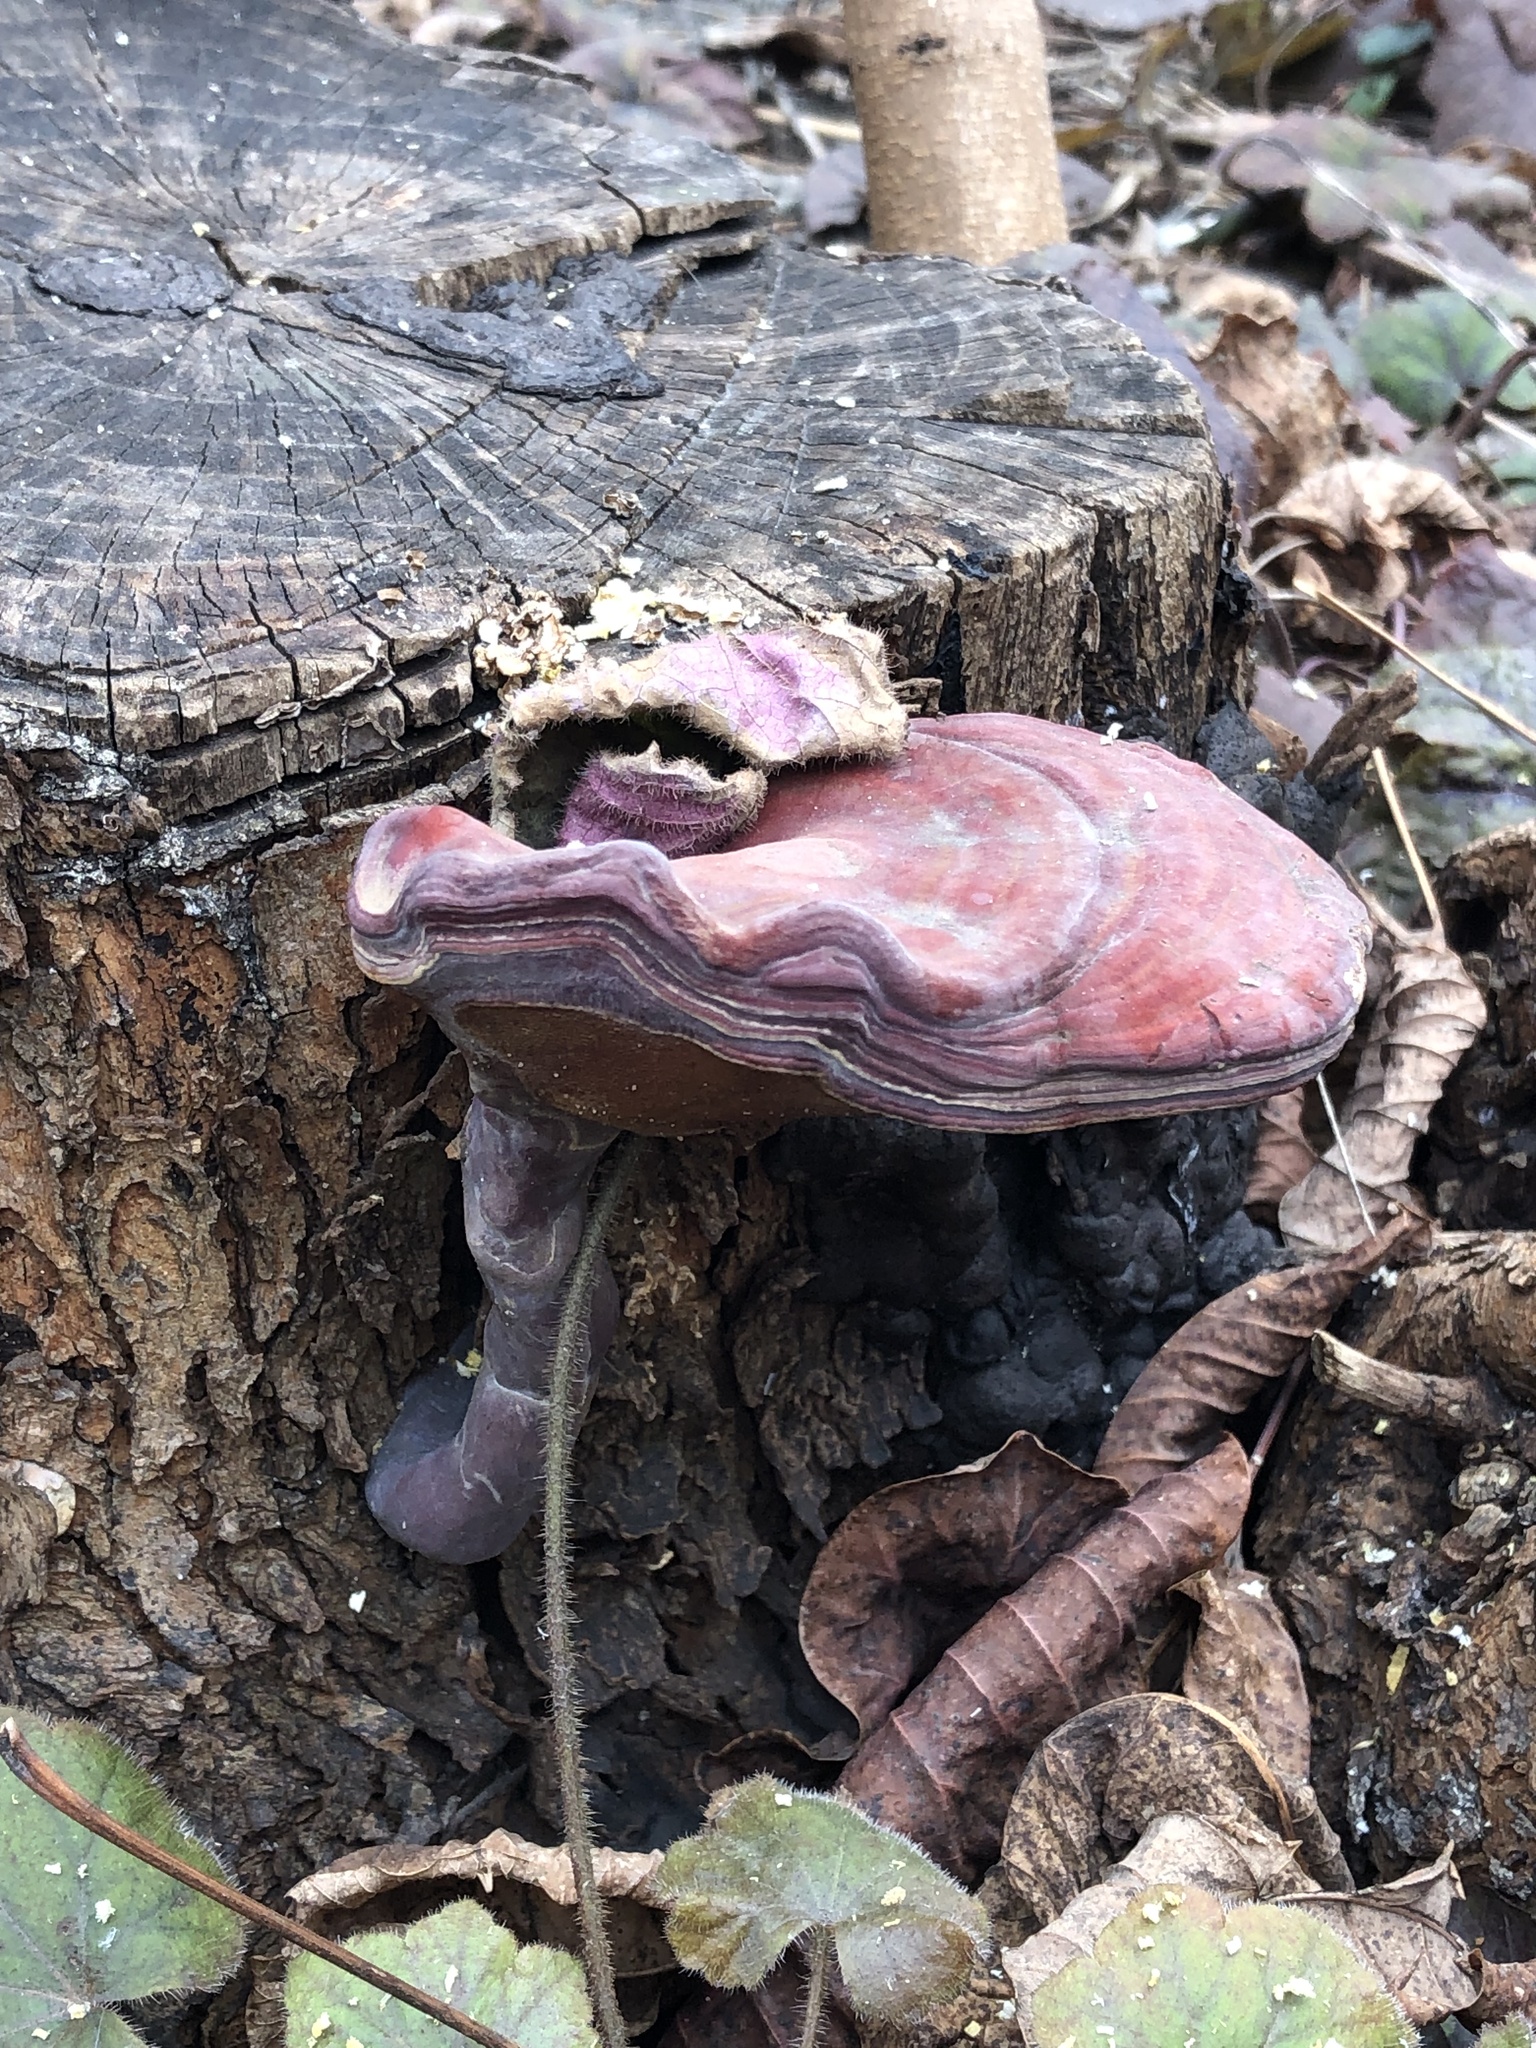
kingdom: Fungi
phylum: Basidiomycota
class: Agaricomycetes
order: Polyporales
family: Polyporaceae
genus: Ganoderma
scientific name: Ganoderma curtisii
